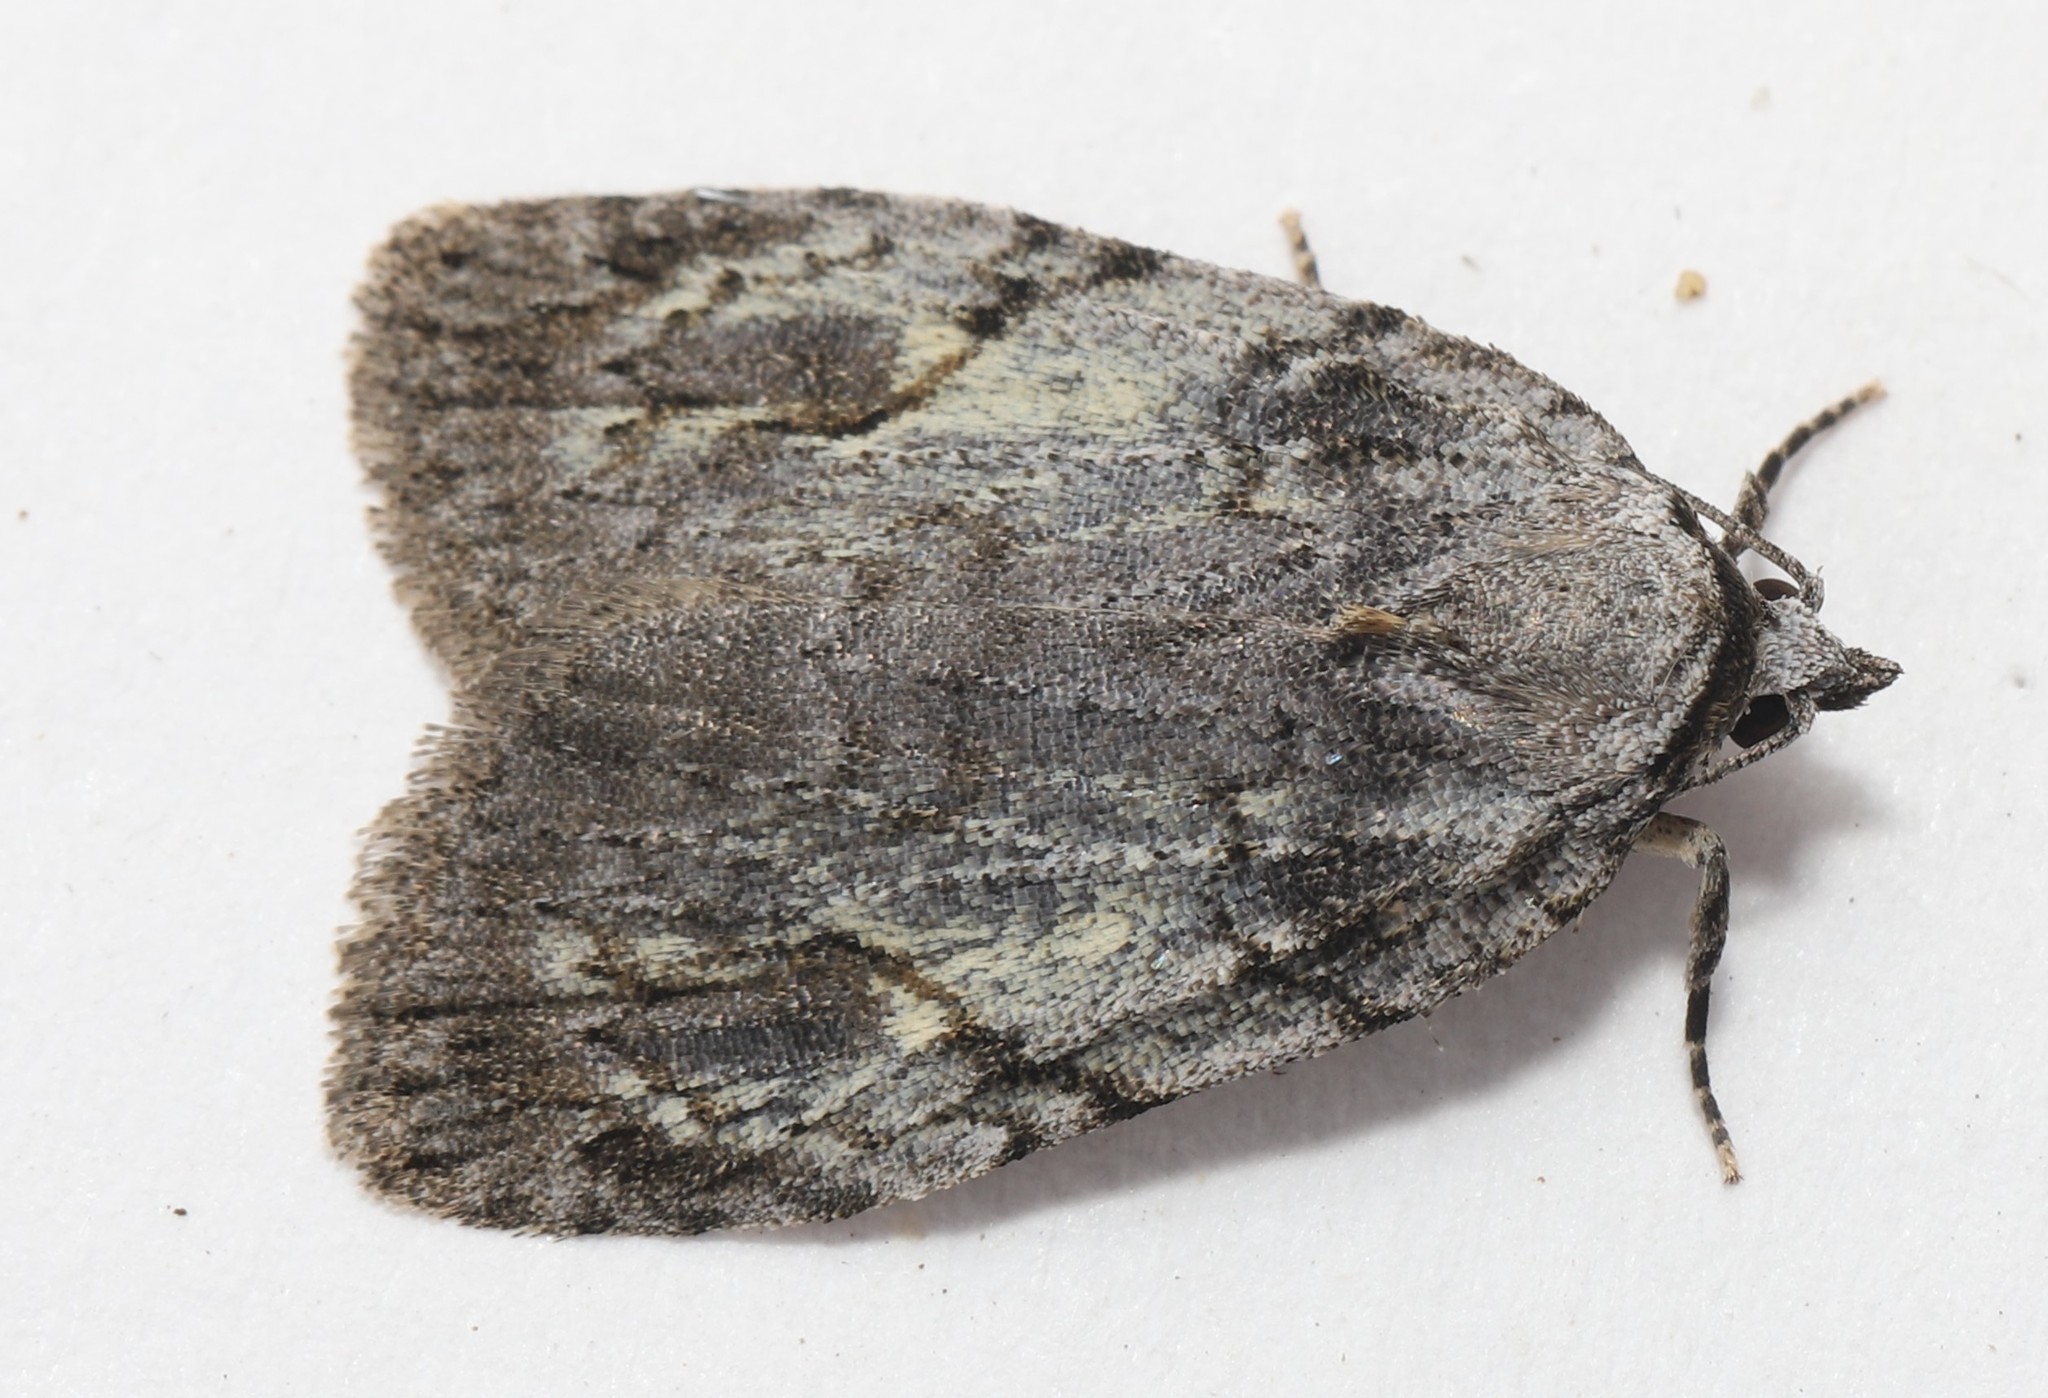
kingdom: Animalia
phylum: Arthropoda
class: Insecta
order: Lepidoptera
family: Noctuidae
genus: Balsa
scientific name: Balsa labecula
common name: White-blotched balsa moth
